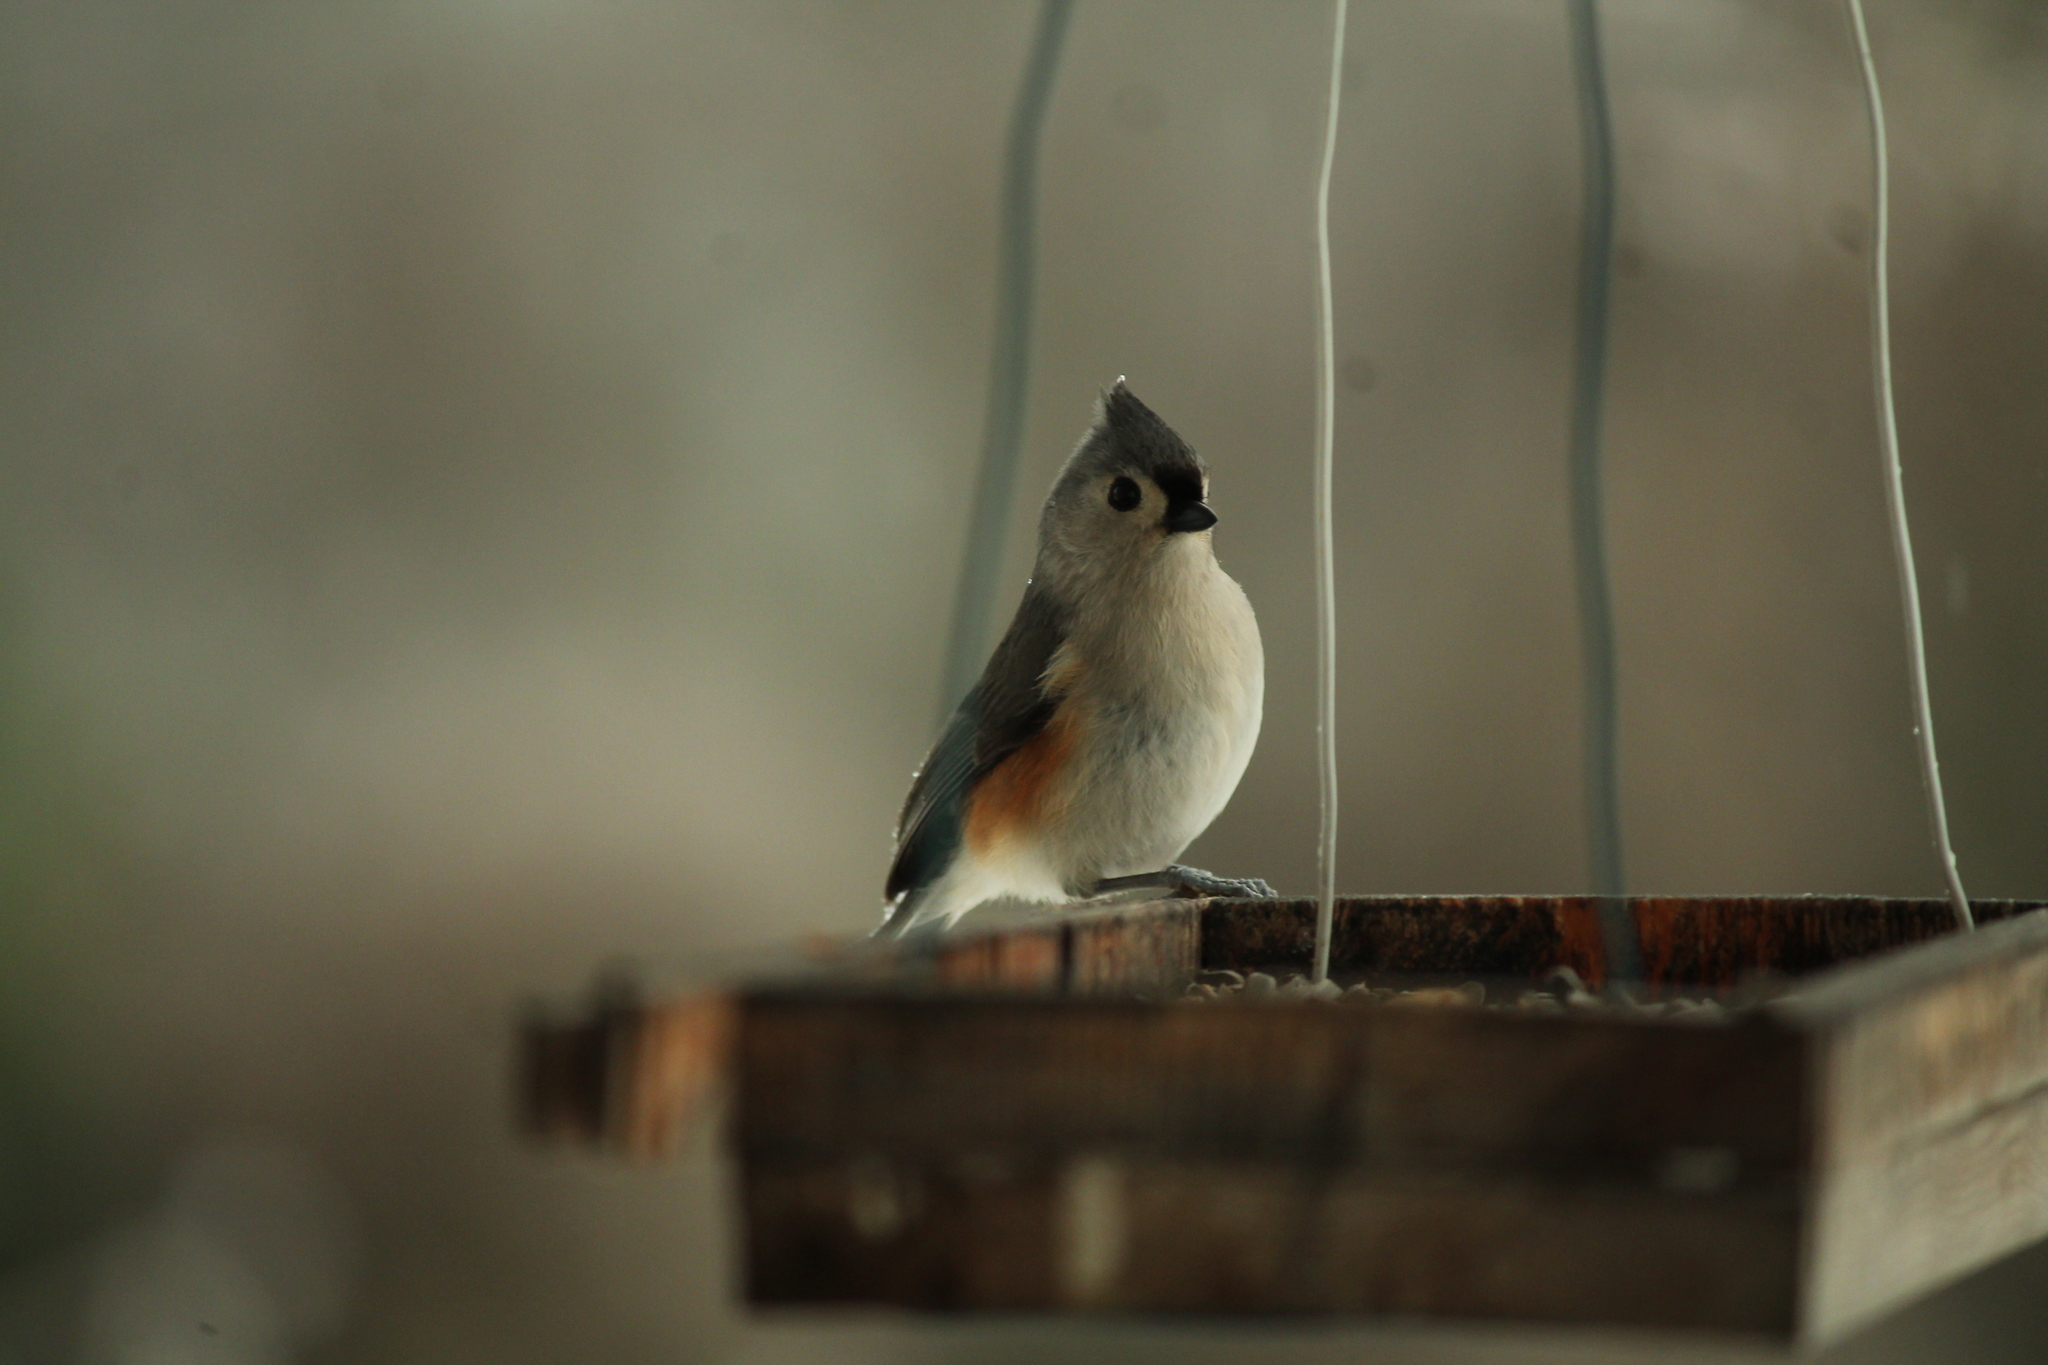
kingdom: Animalia
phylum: Chordata
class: Aves
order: Passeriformes
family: Paridae
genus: Baeolophus
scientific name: Baeolophus bicolor
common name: Tufted titmouse
